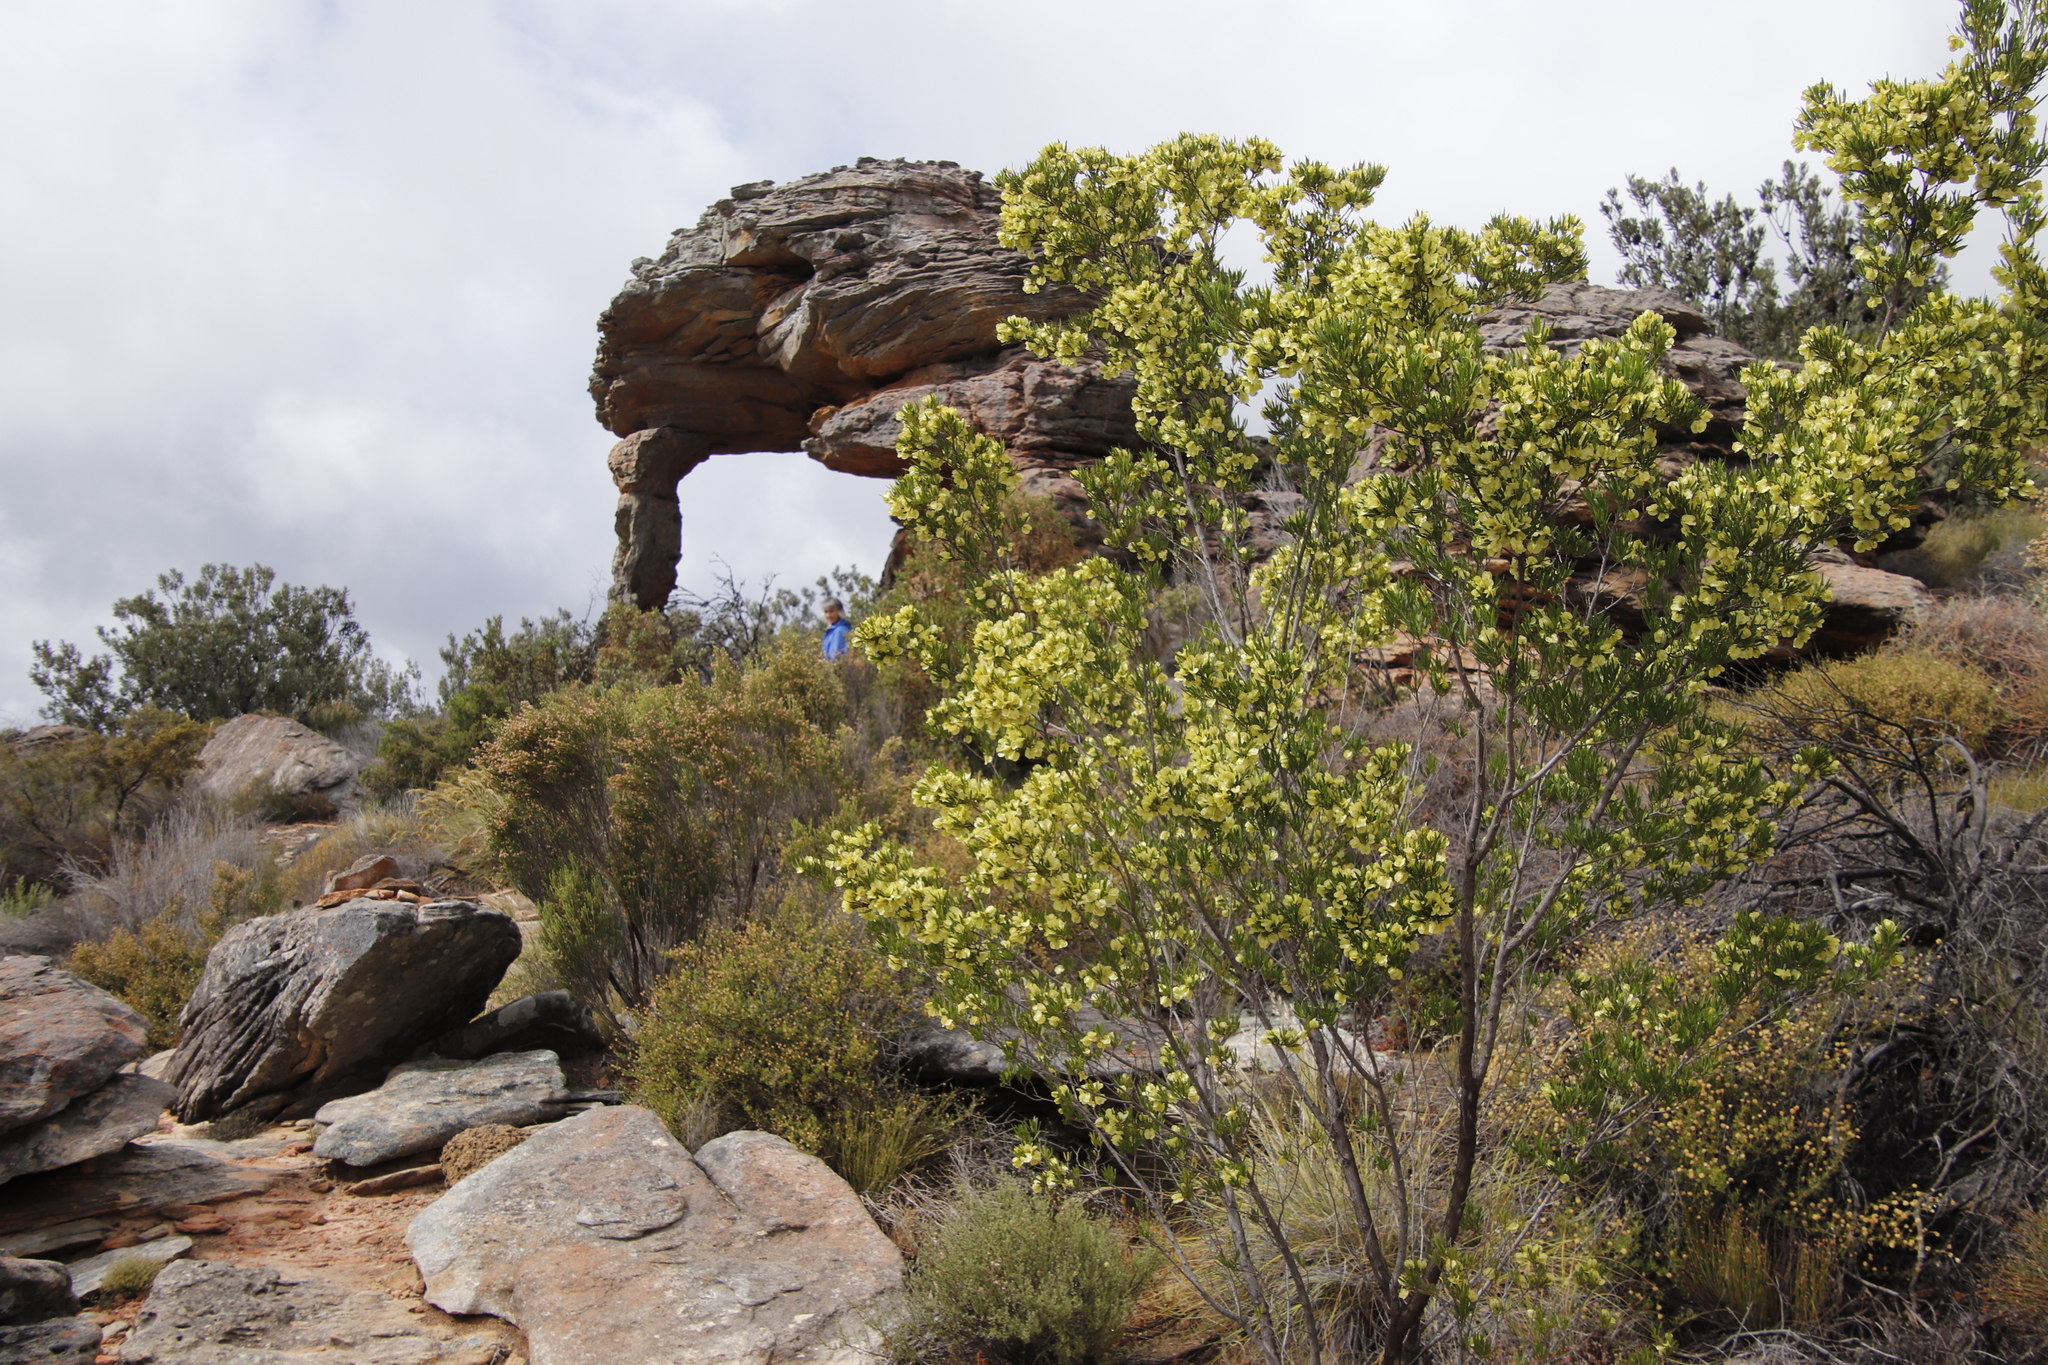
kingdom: Plantae
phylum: Tracheophyta
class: Magnoliopsida
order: Sapindales
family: Sapindaceae
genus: Dodonaea
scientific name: Dodonaea viscosa
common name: Hopbush
